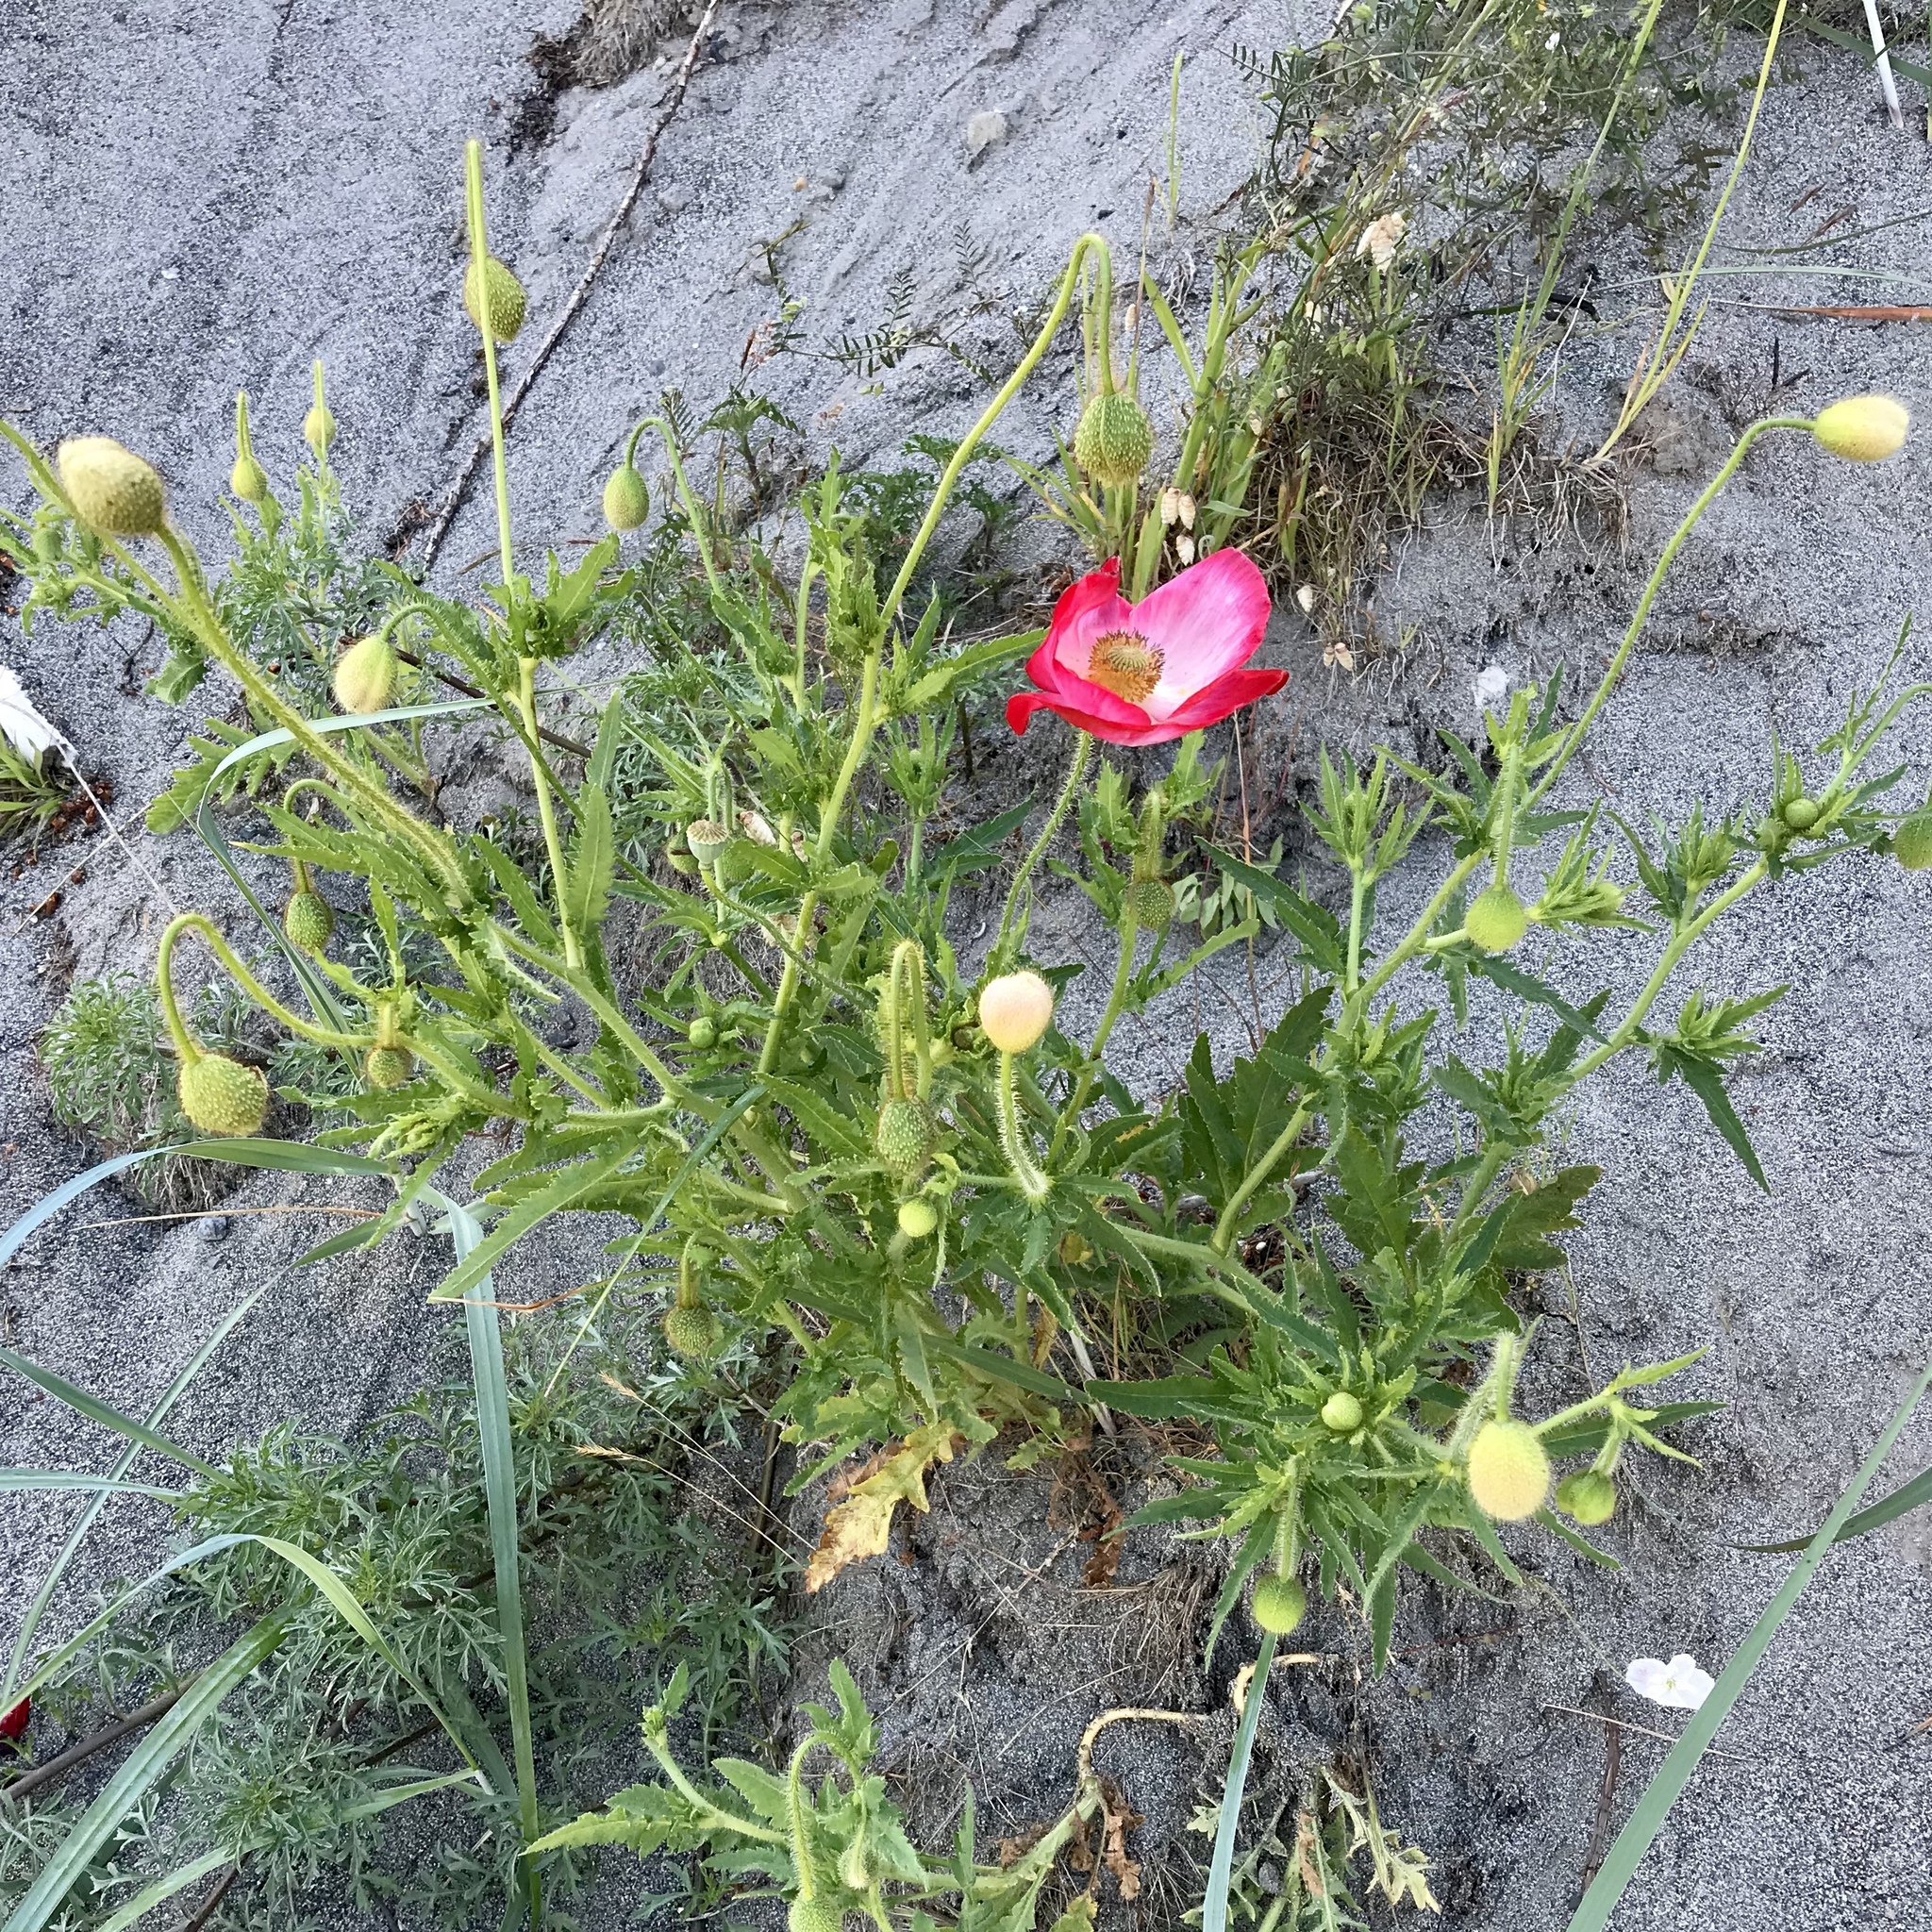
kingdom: Plantae
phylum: Tracheophyta
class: Magnoliopsida
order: Ranunculales
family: Papaveraceae
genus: Papaver
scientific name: Papaver rhoeas
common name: Corn poppy
